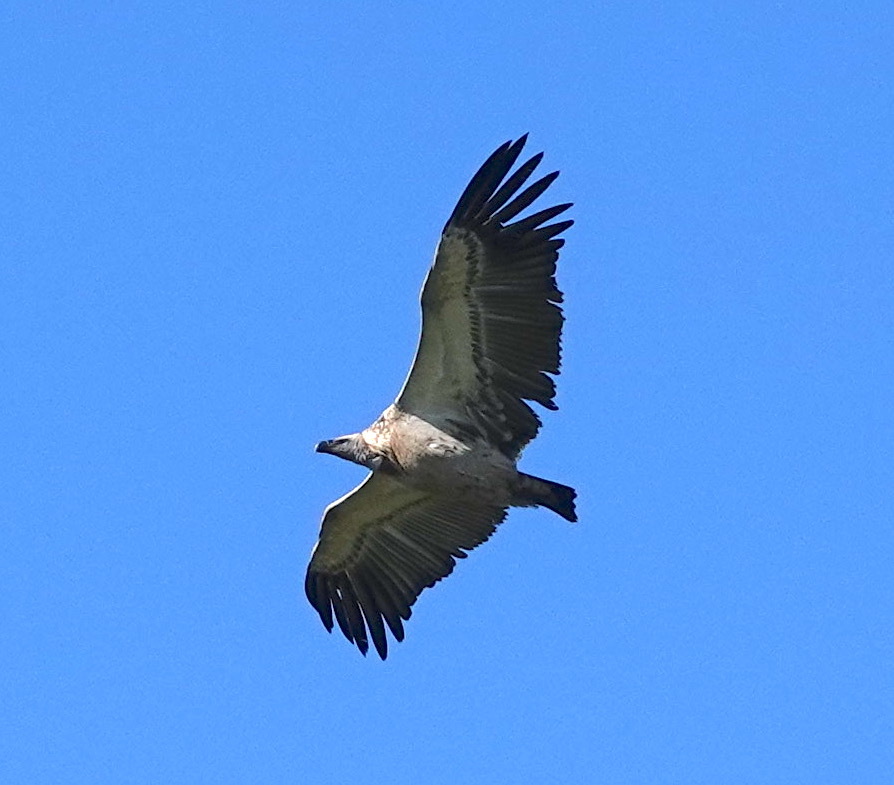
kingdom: Animalia
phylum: Chordata
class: Aves
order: Accipitriformes
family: Accipitridae
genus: Gyps
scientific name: Gyps coprotheres
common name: Cape vulture
